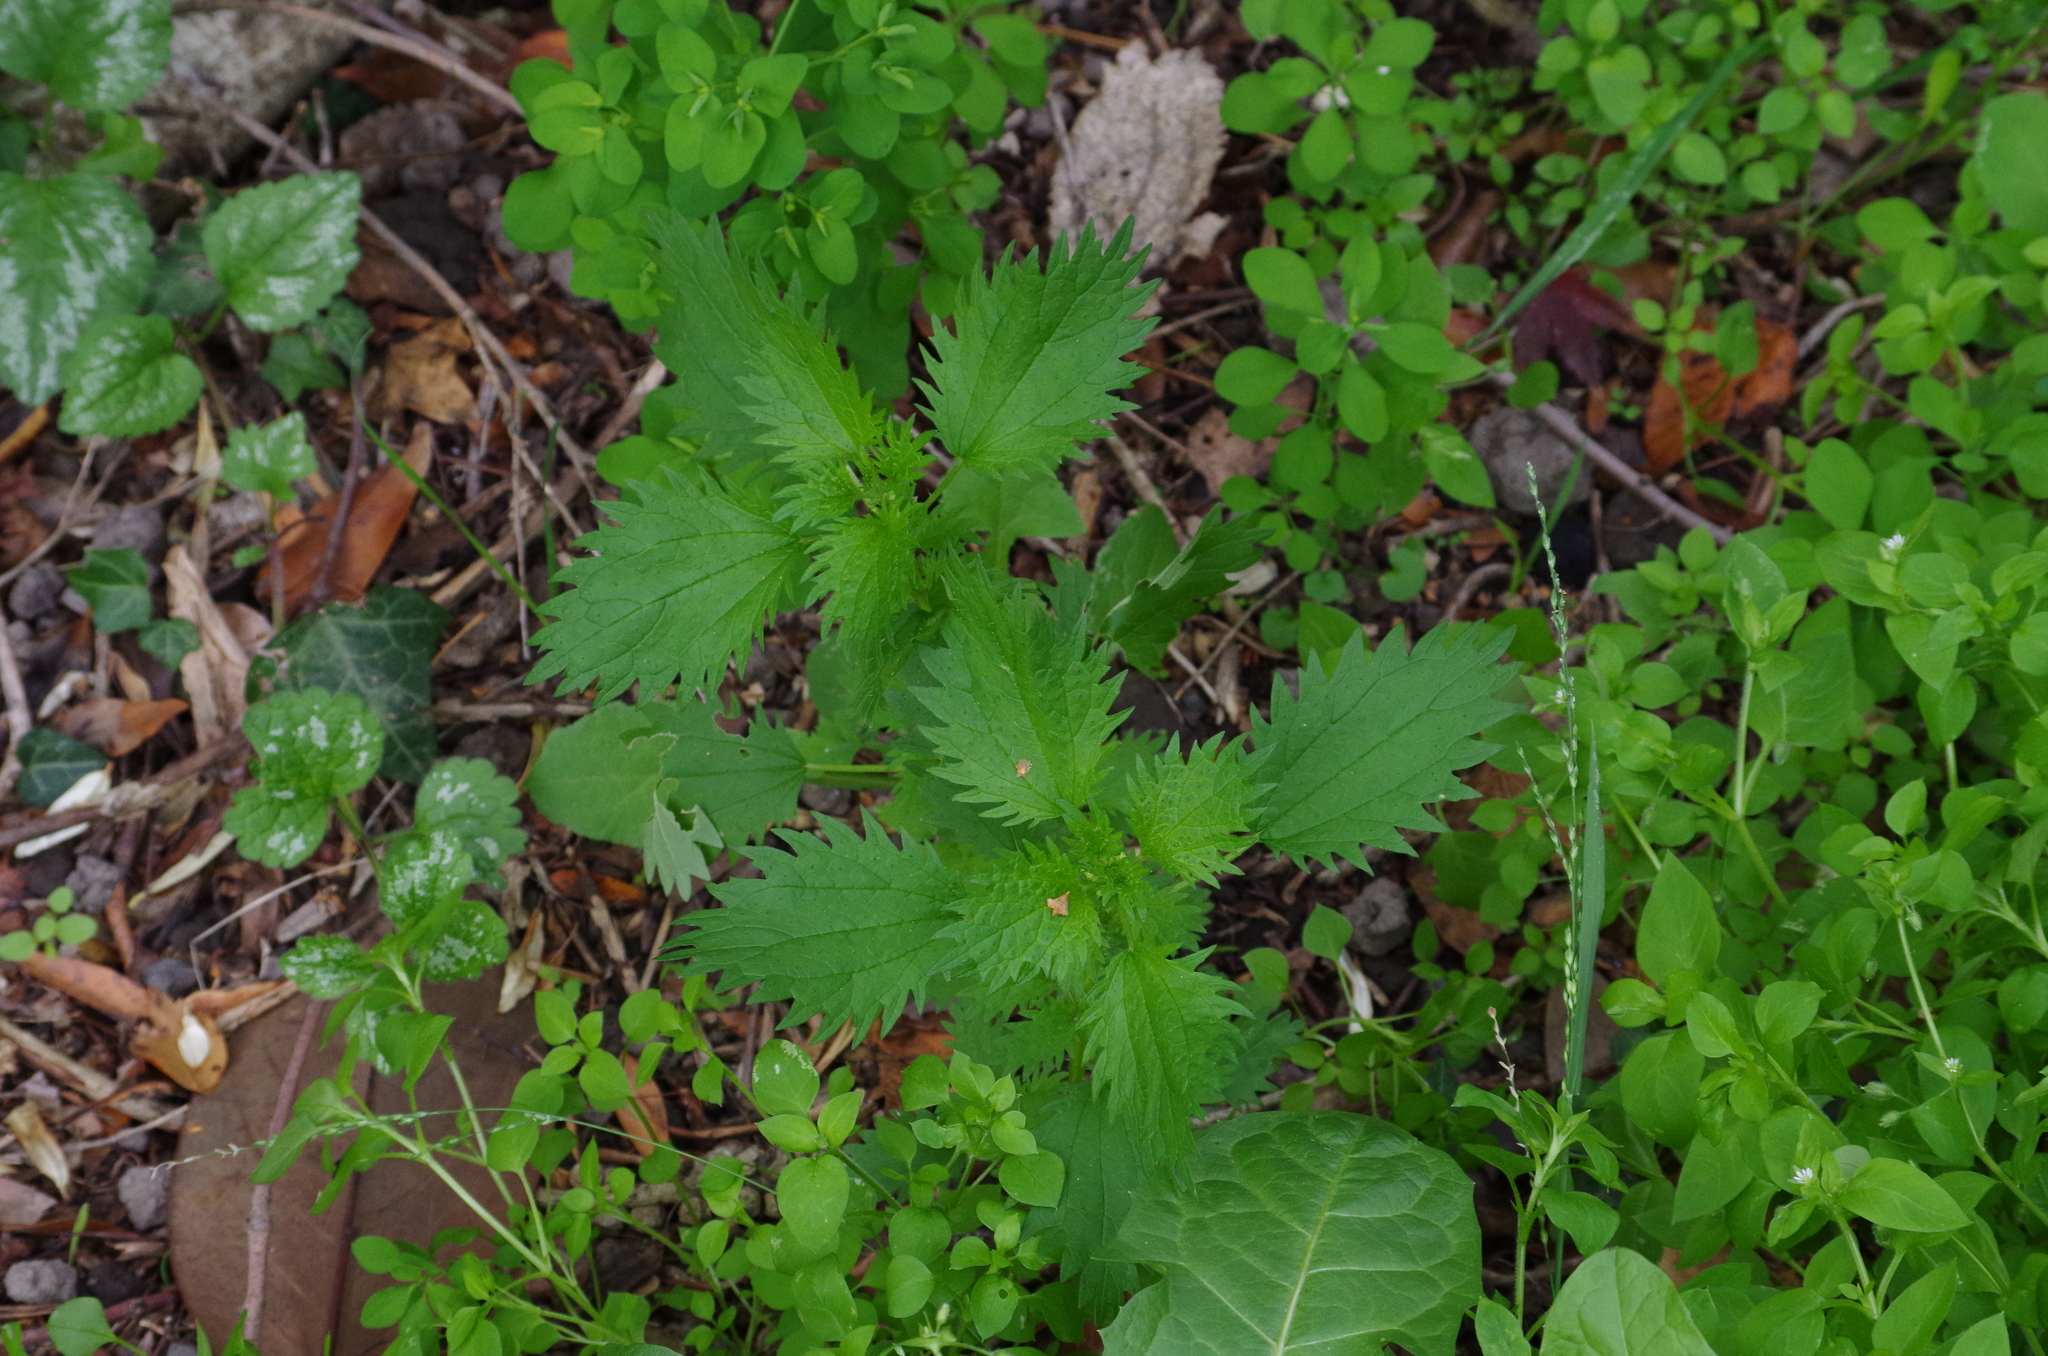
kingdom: Plantae
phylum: Tracheophyta
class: Magnoliopsida
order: Rosales
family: Urticaceae
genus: Urtica
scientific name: Urtica urens
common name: Dwarf nettle
